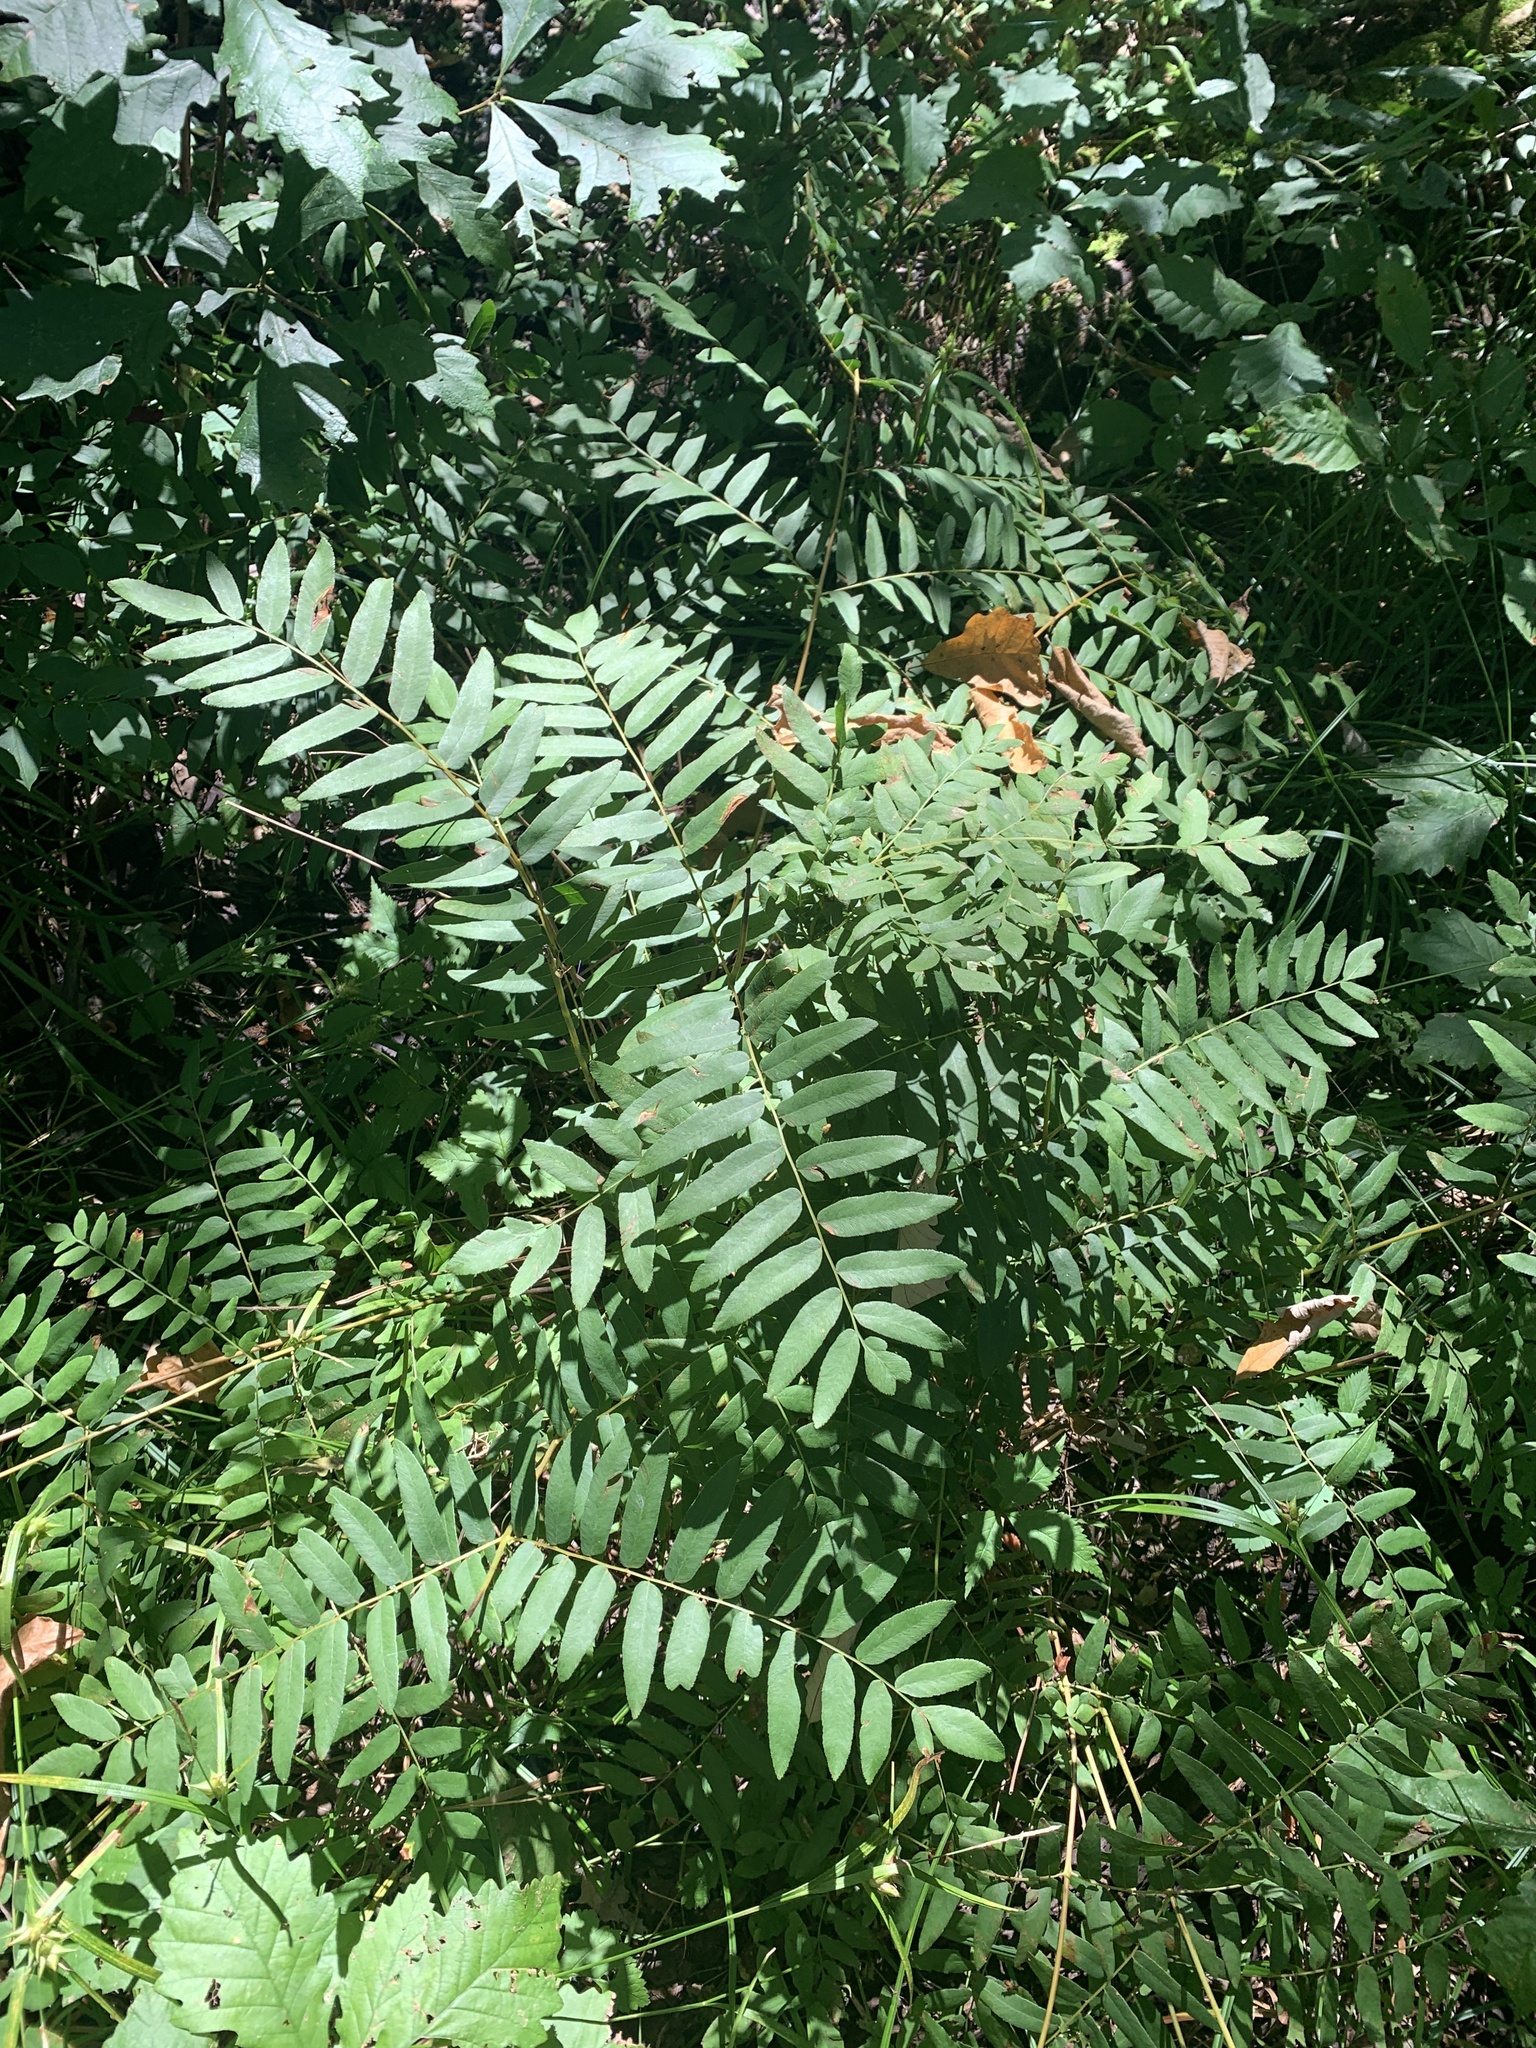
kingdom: Plantae
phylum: Tracheophyta
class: Polypodiopsida
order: Osmundales
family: Osmundaceae
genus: Osmunda
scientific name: Osmunda spectabilis
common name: American royal fern
